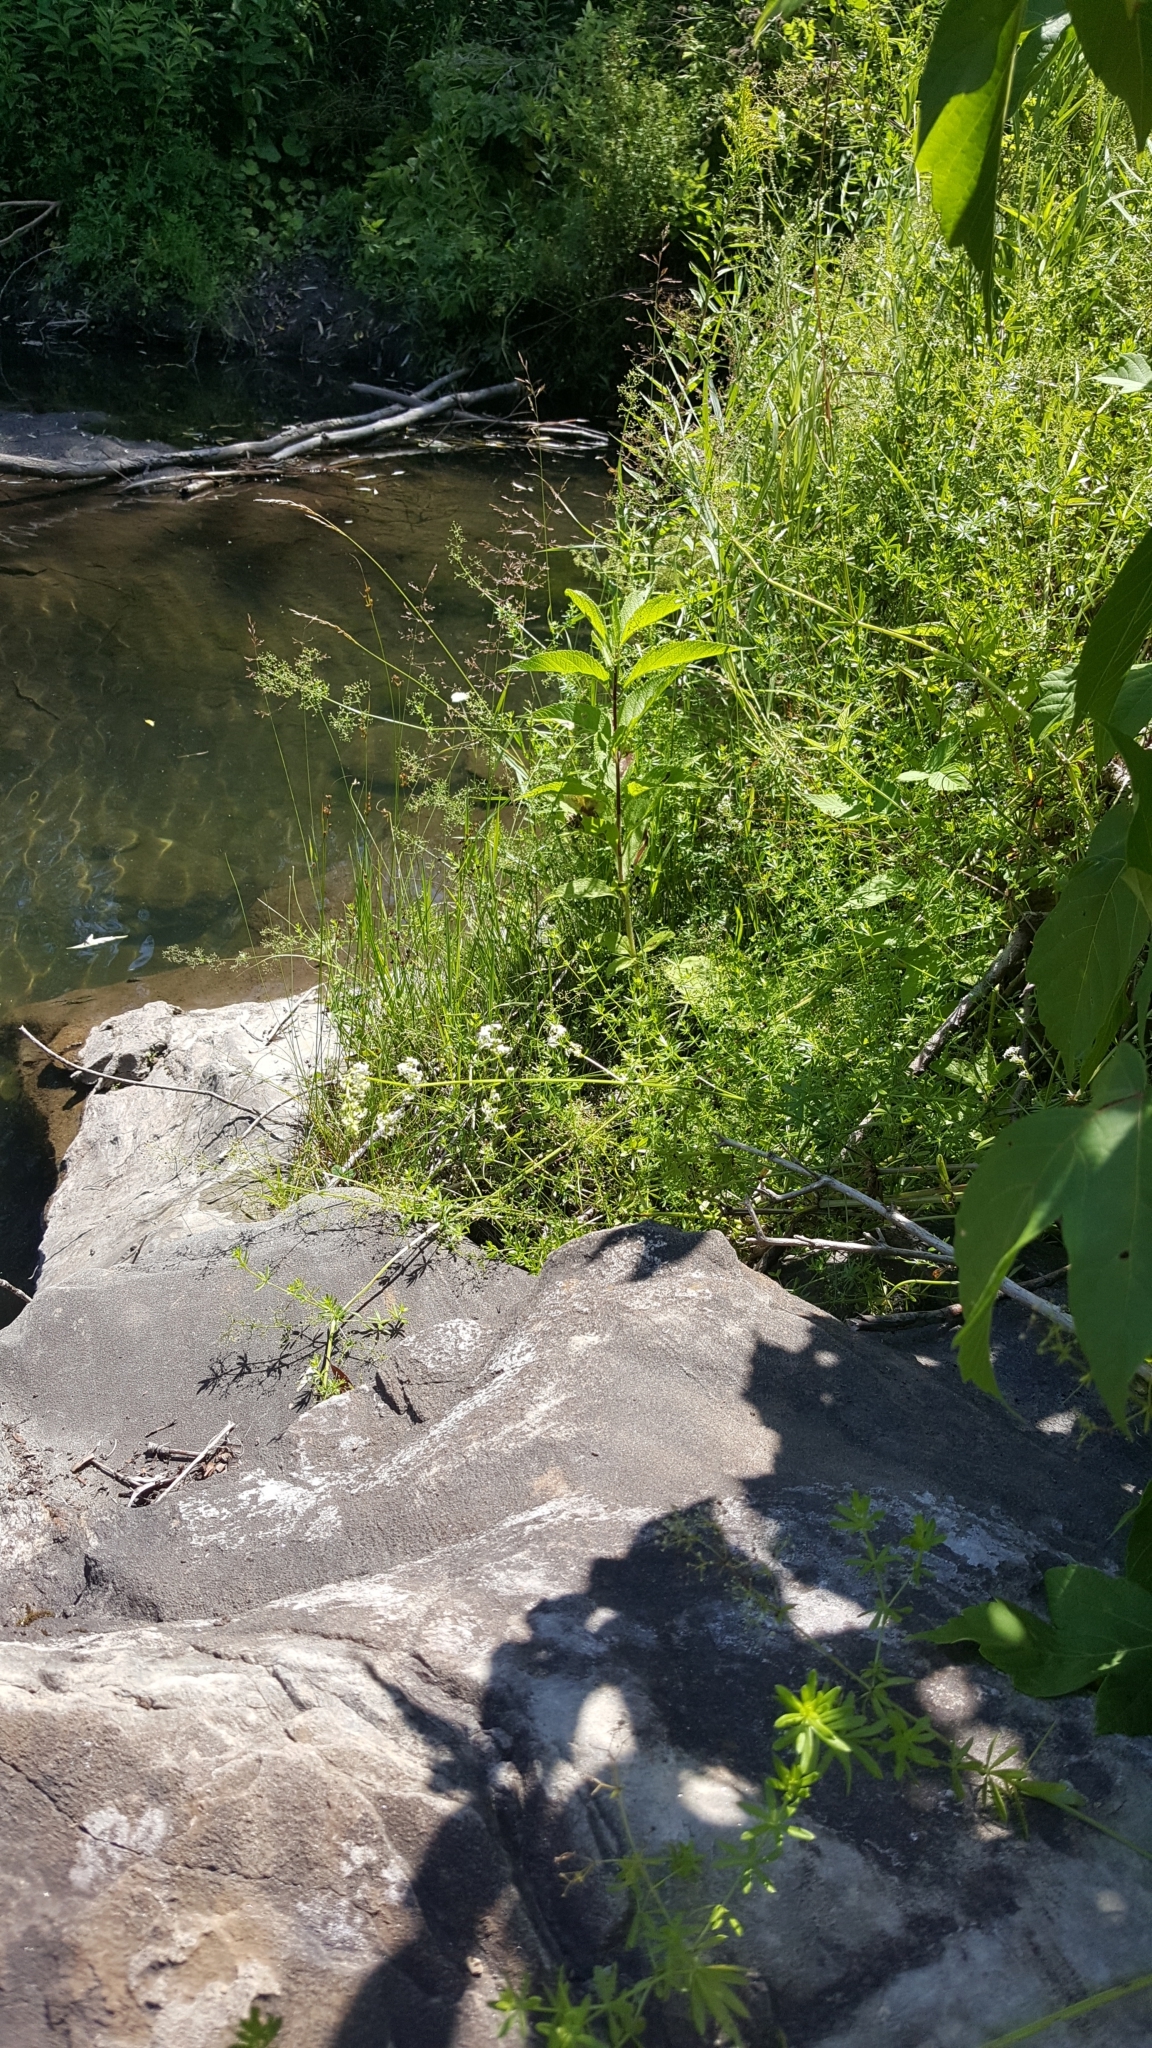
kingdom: Plantae
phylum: Tracheophyta
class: Magnoliopsida
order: Gentianales
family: Rubiaceae
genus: Galium
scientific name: Galium mollugo
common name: Hedge bedstraw
